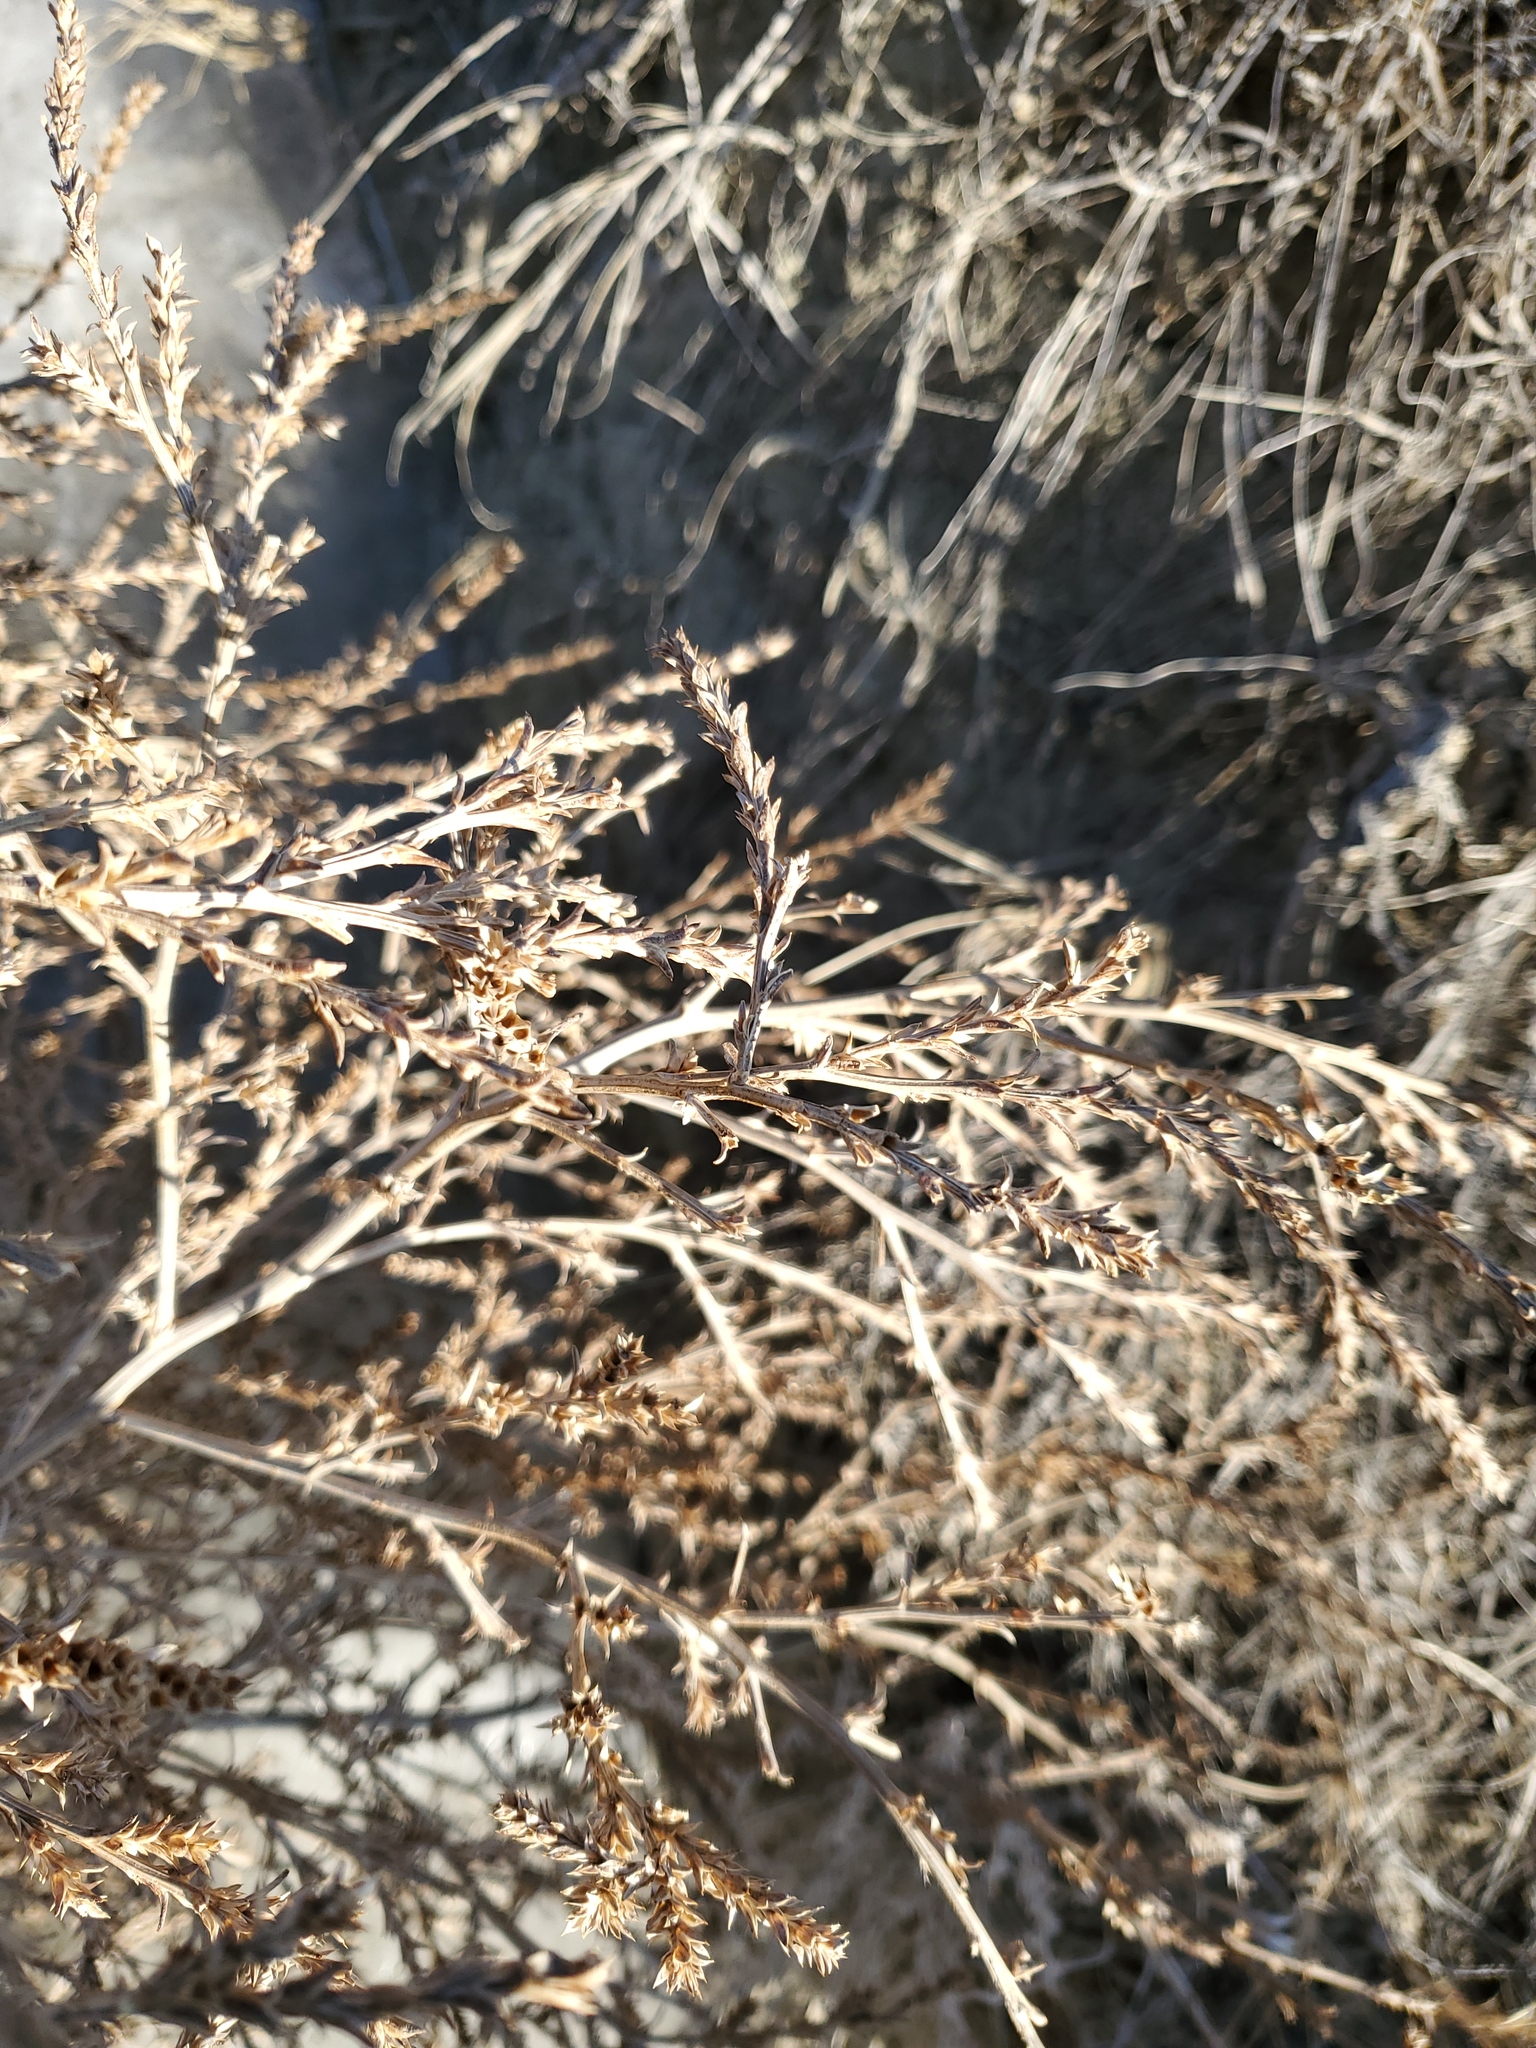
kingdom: Plantae
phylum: Tracheophyta
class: Magnoliopsida
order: Caryophyllales
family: Amaranthaceae
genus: Salsola
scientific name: Salsola tragus
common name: Prickly russian thistle
